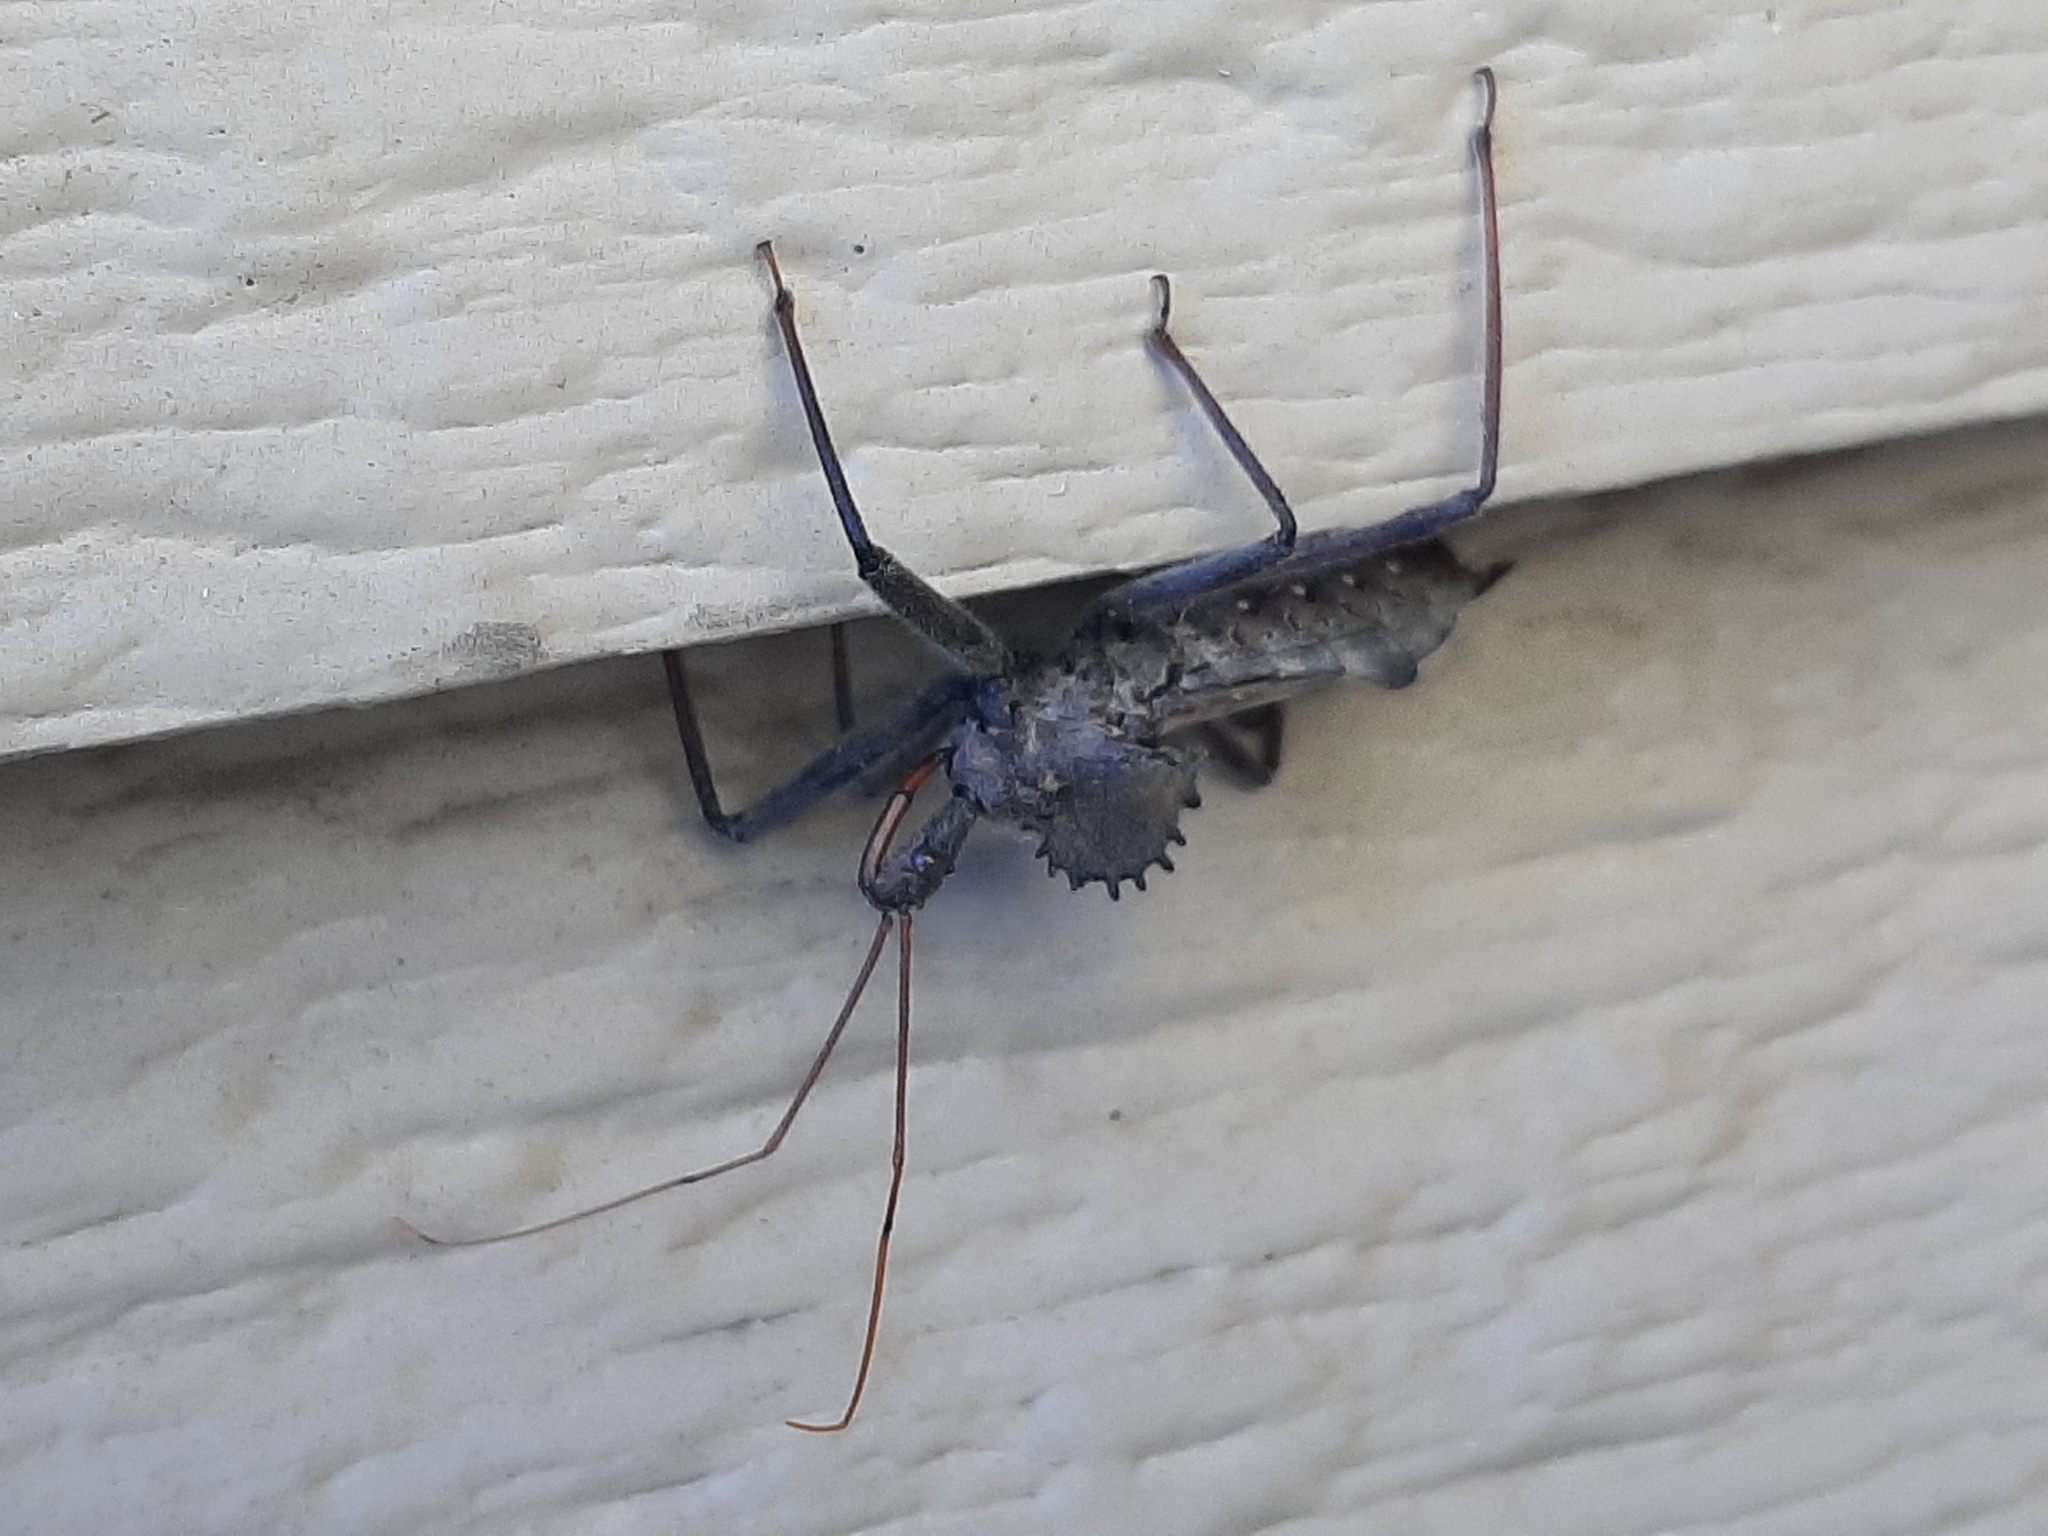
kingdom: Animalia
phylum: Arthropoda
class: Insecta
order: Hemiptera
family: Reduviidae
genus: Arilus
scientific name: Arilus cristatus
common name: North american wheel bug
